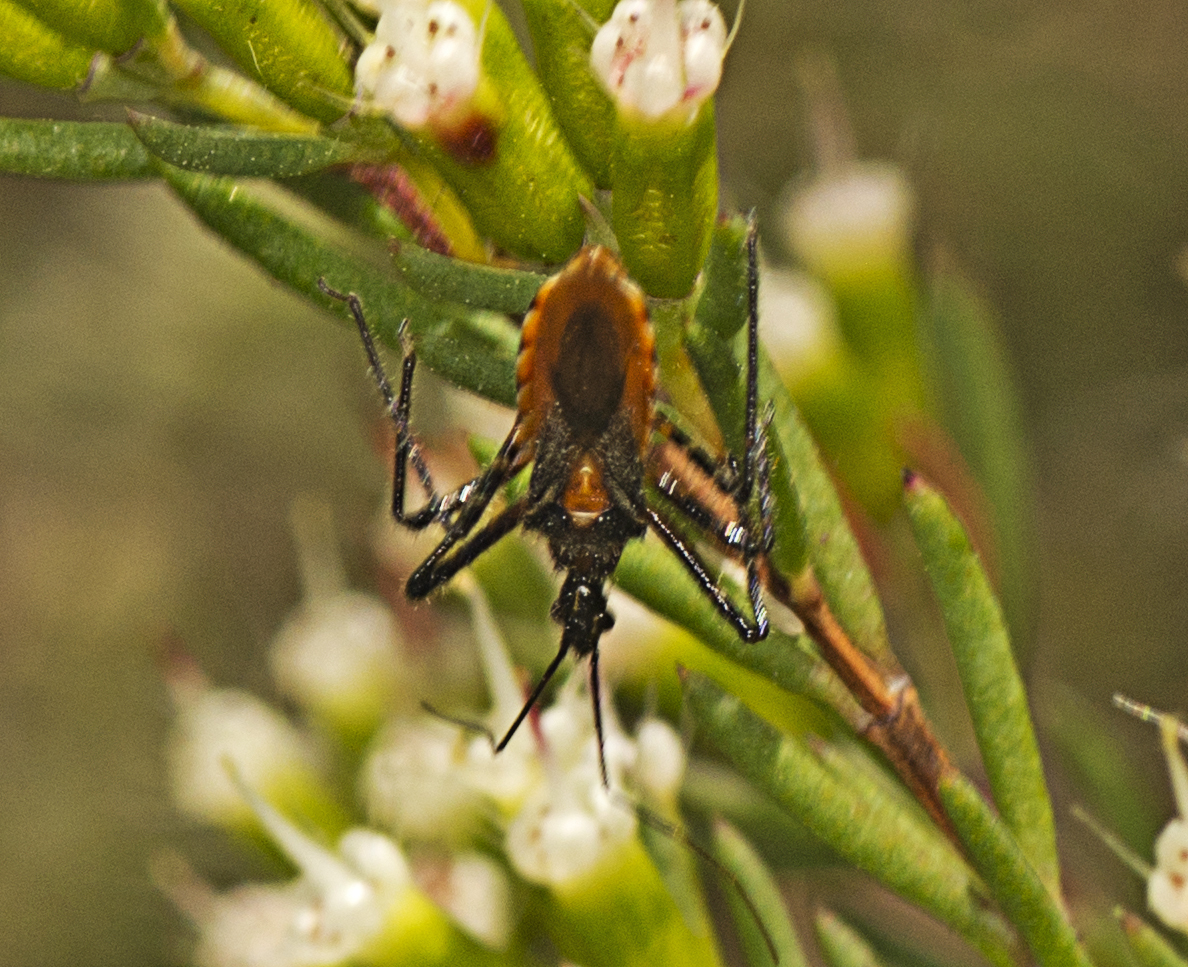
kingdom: Animalia
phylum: Arthropoda
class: Insecta
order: Hemiptera
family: Reduviidae
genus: Trachylestes
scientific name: Trachylestes aspericollis
